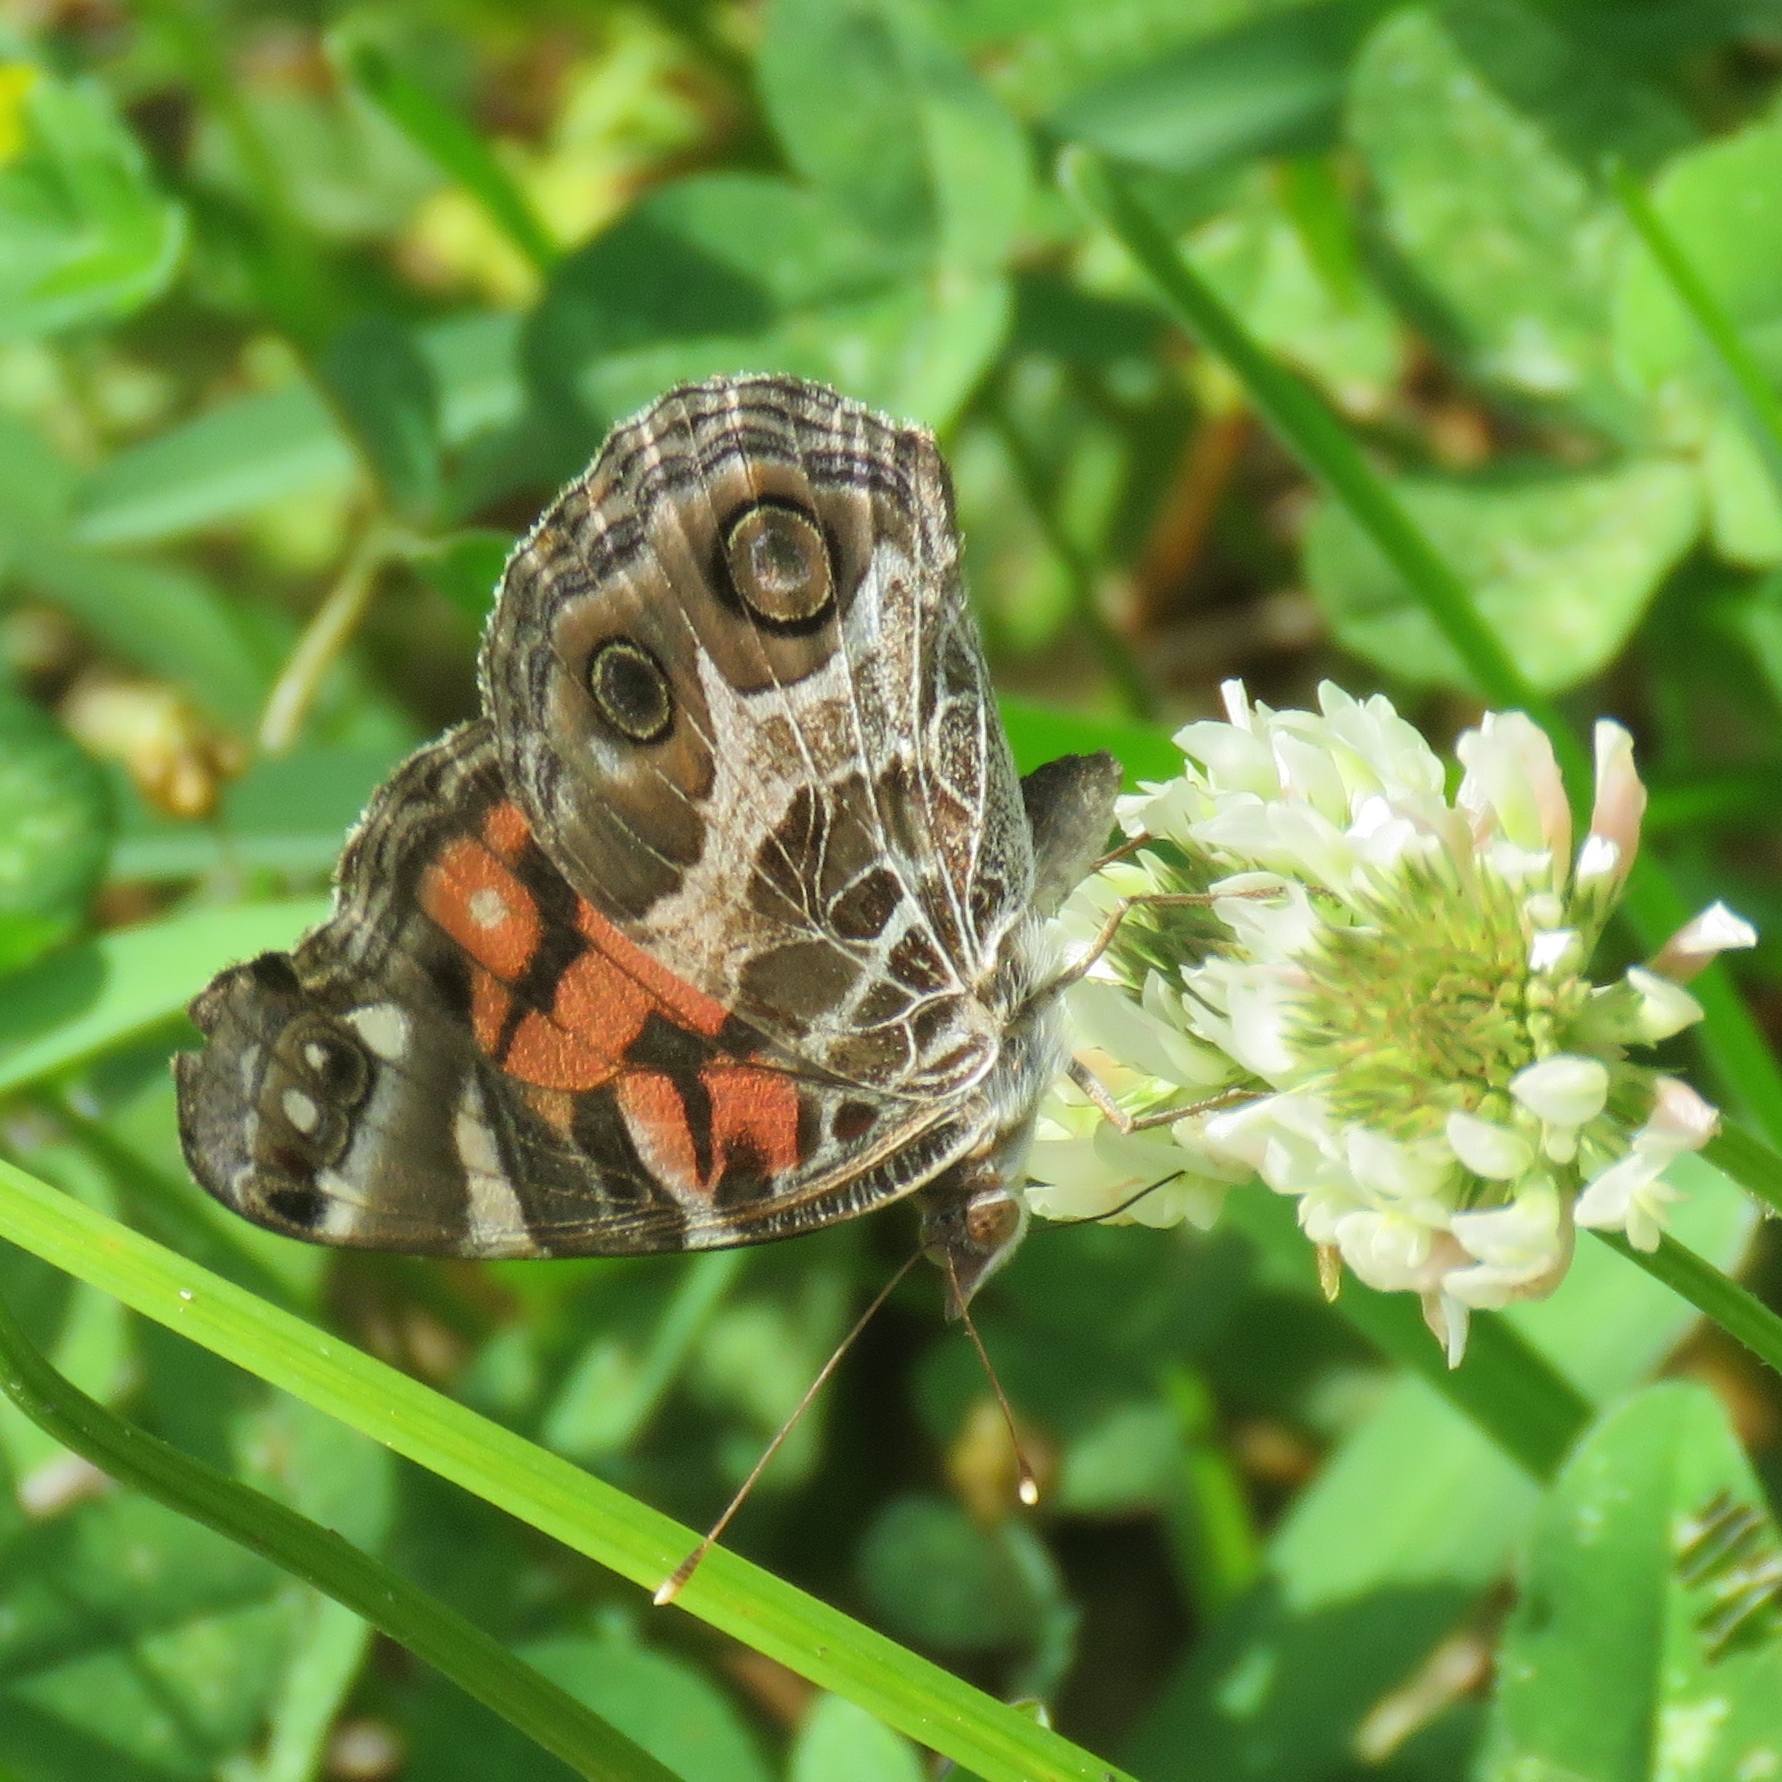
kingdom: Animalia
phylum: Arthropoda
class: Insecta
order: Lepidoptera
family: Nymphalidae
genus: Vanessa
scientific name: Vanessa virginiensis
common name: American lady
